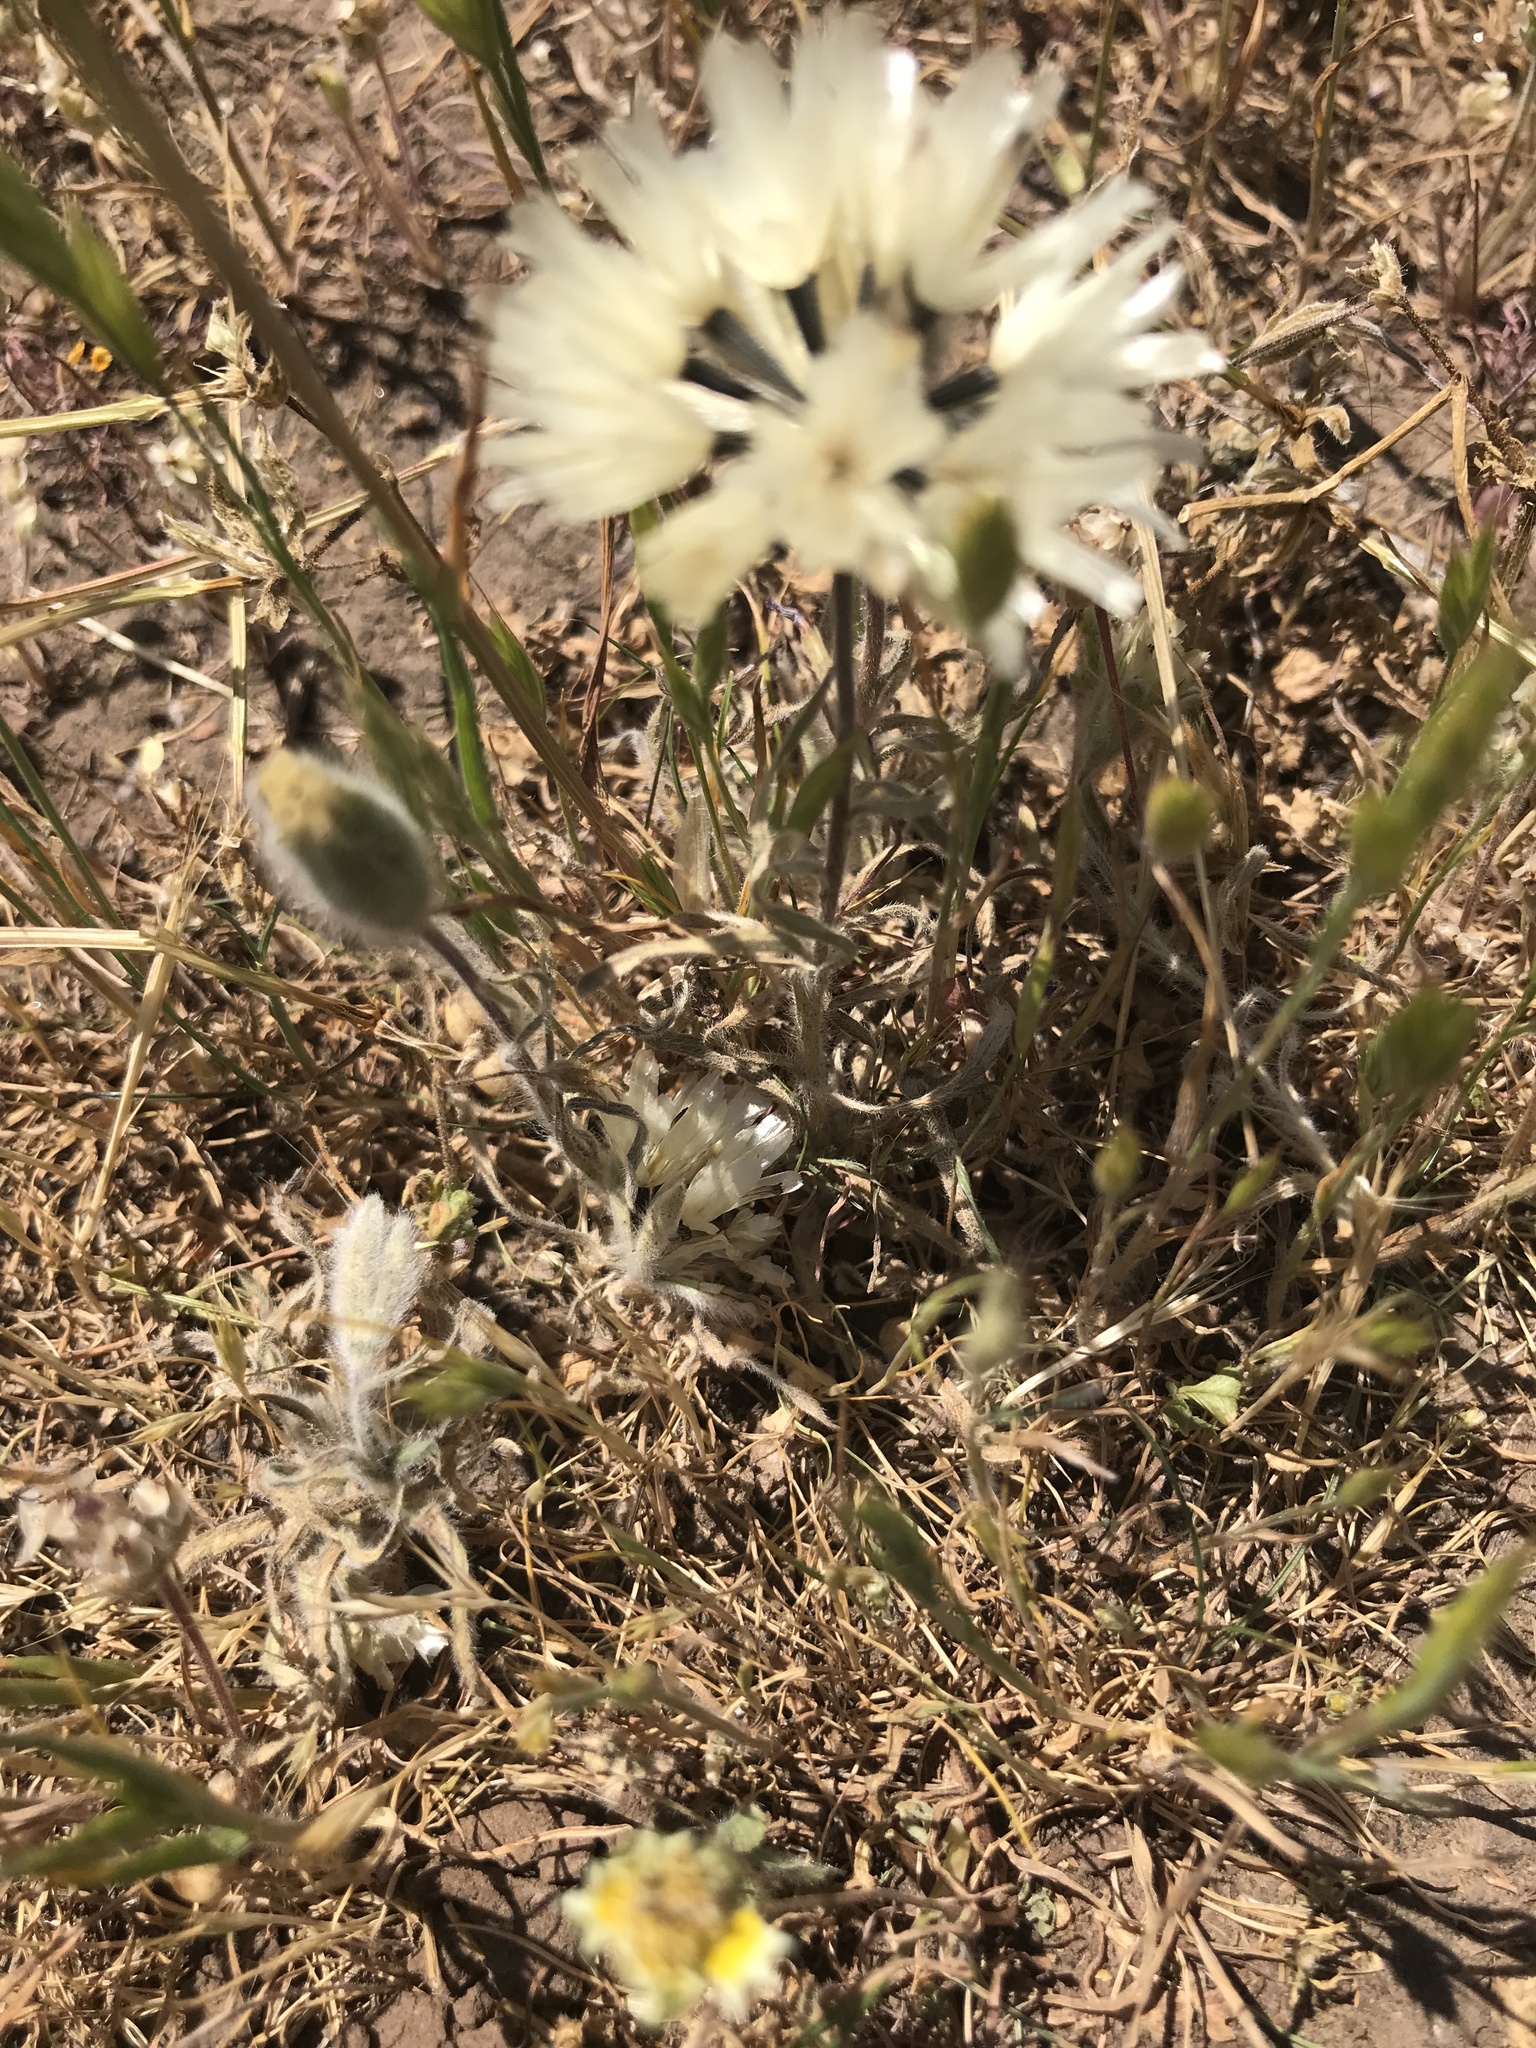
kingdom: Plantae
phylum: Tracheophyta
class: Magnoliopsida
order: Asterales
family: Asteraceae
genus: Achyrachaena
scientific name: Achyrachaena mollis
